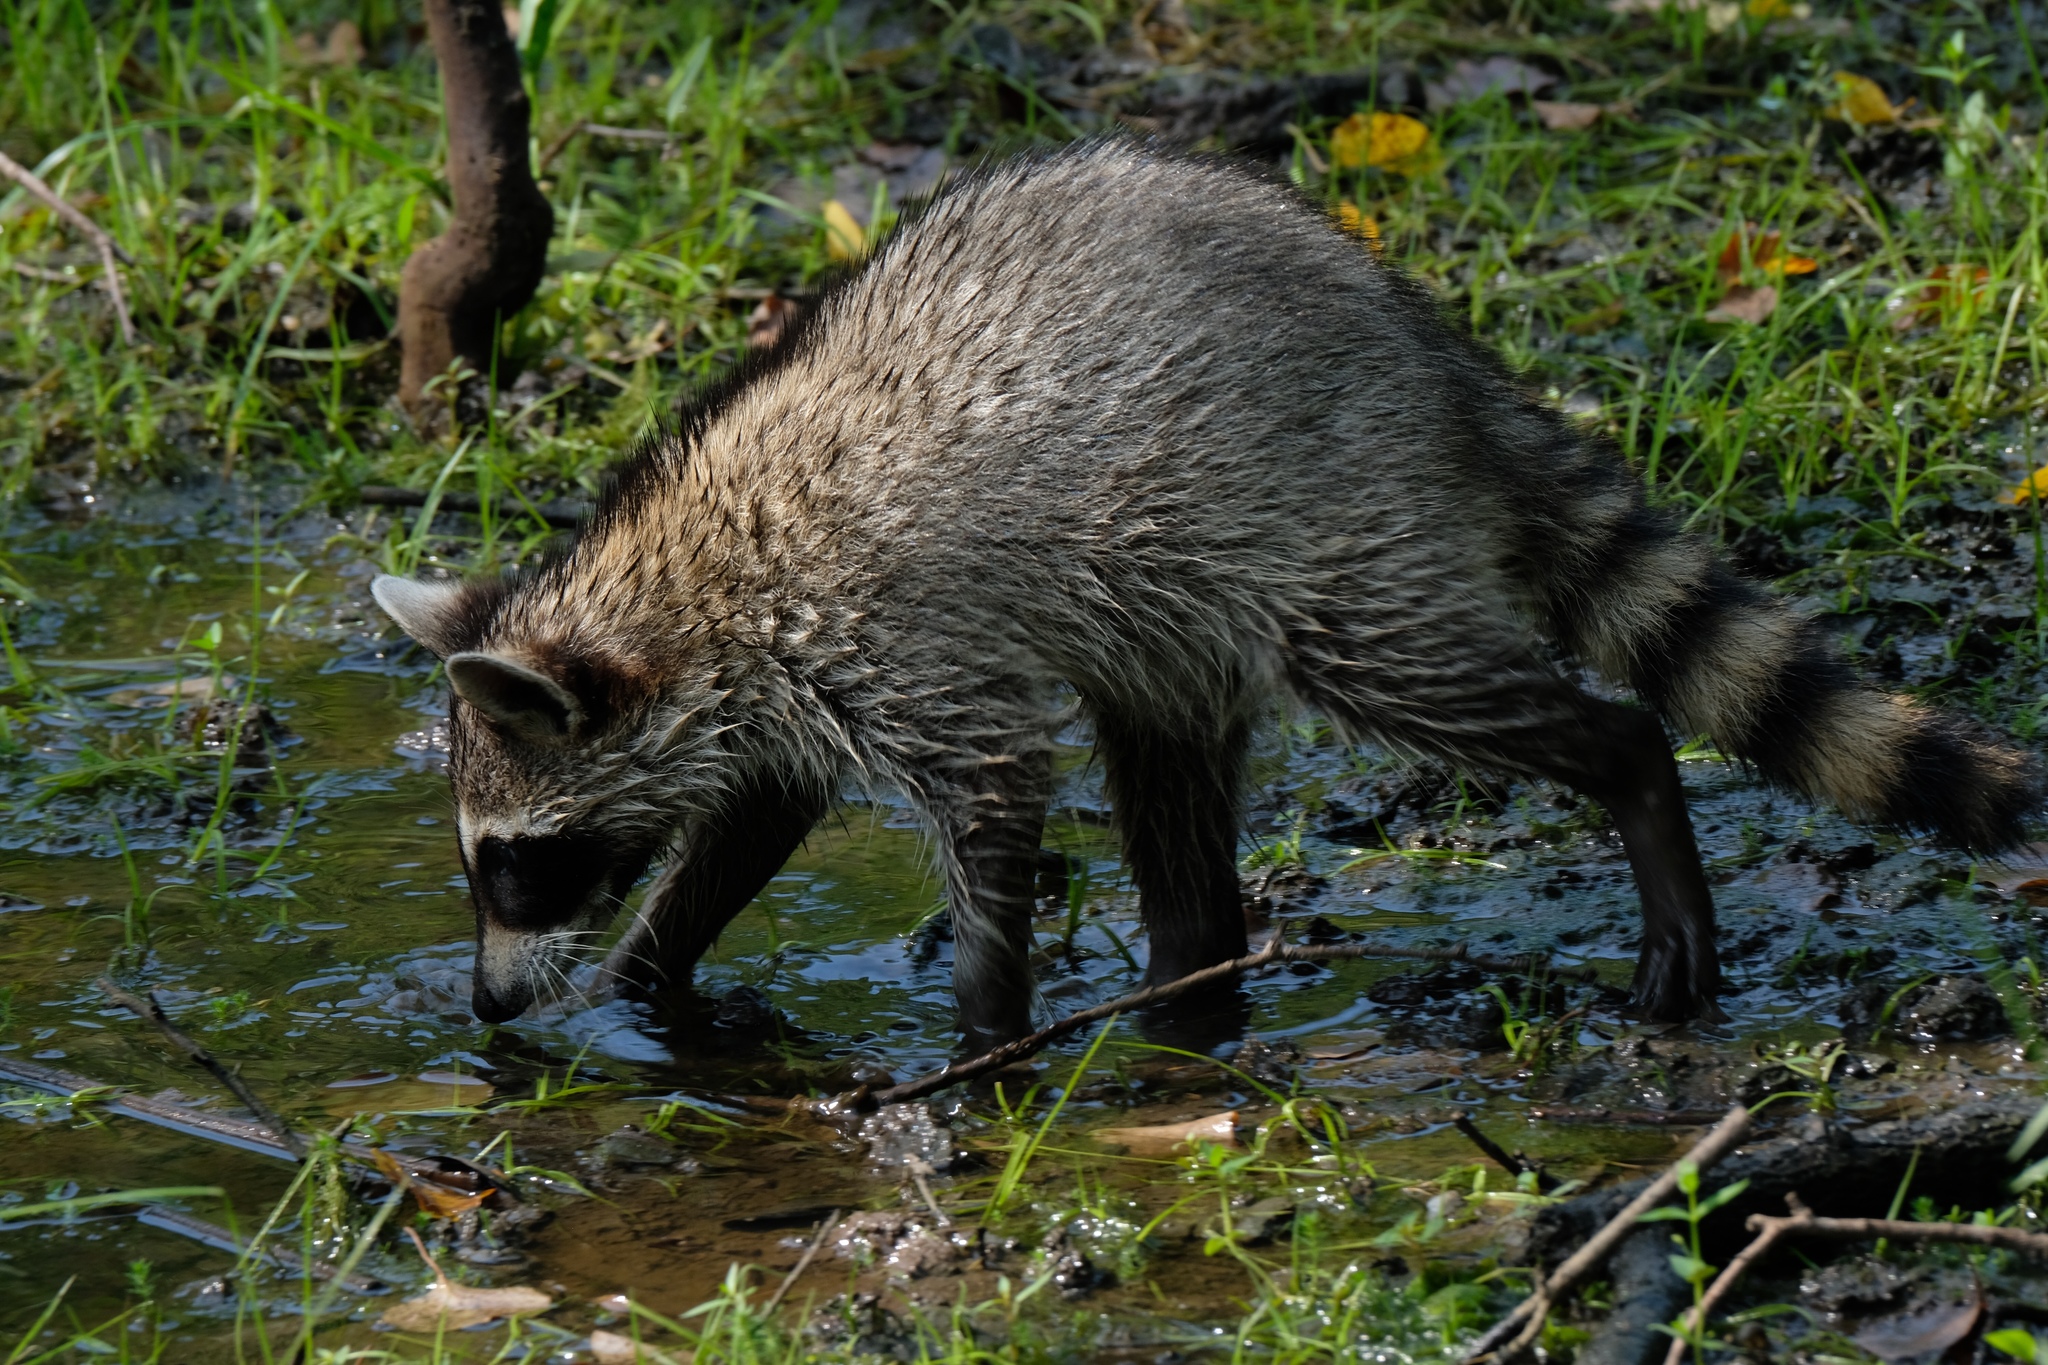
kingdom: Animalia
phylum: Chordata
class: Mammalia
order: Carnivora
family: Procyonidae
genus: Procyon
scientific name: Procyon lotor
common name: Raccoon
